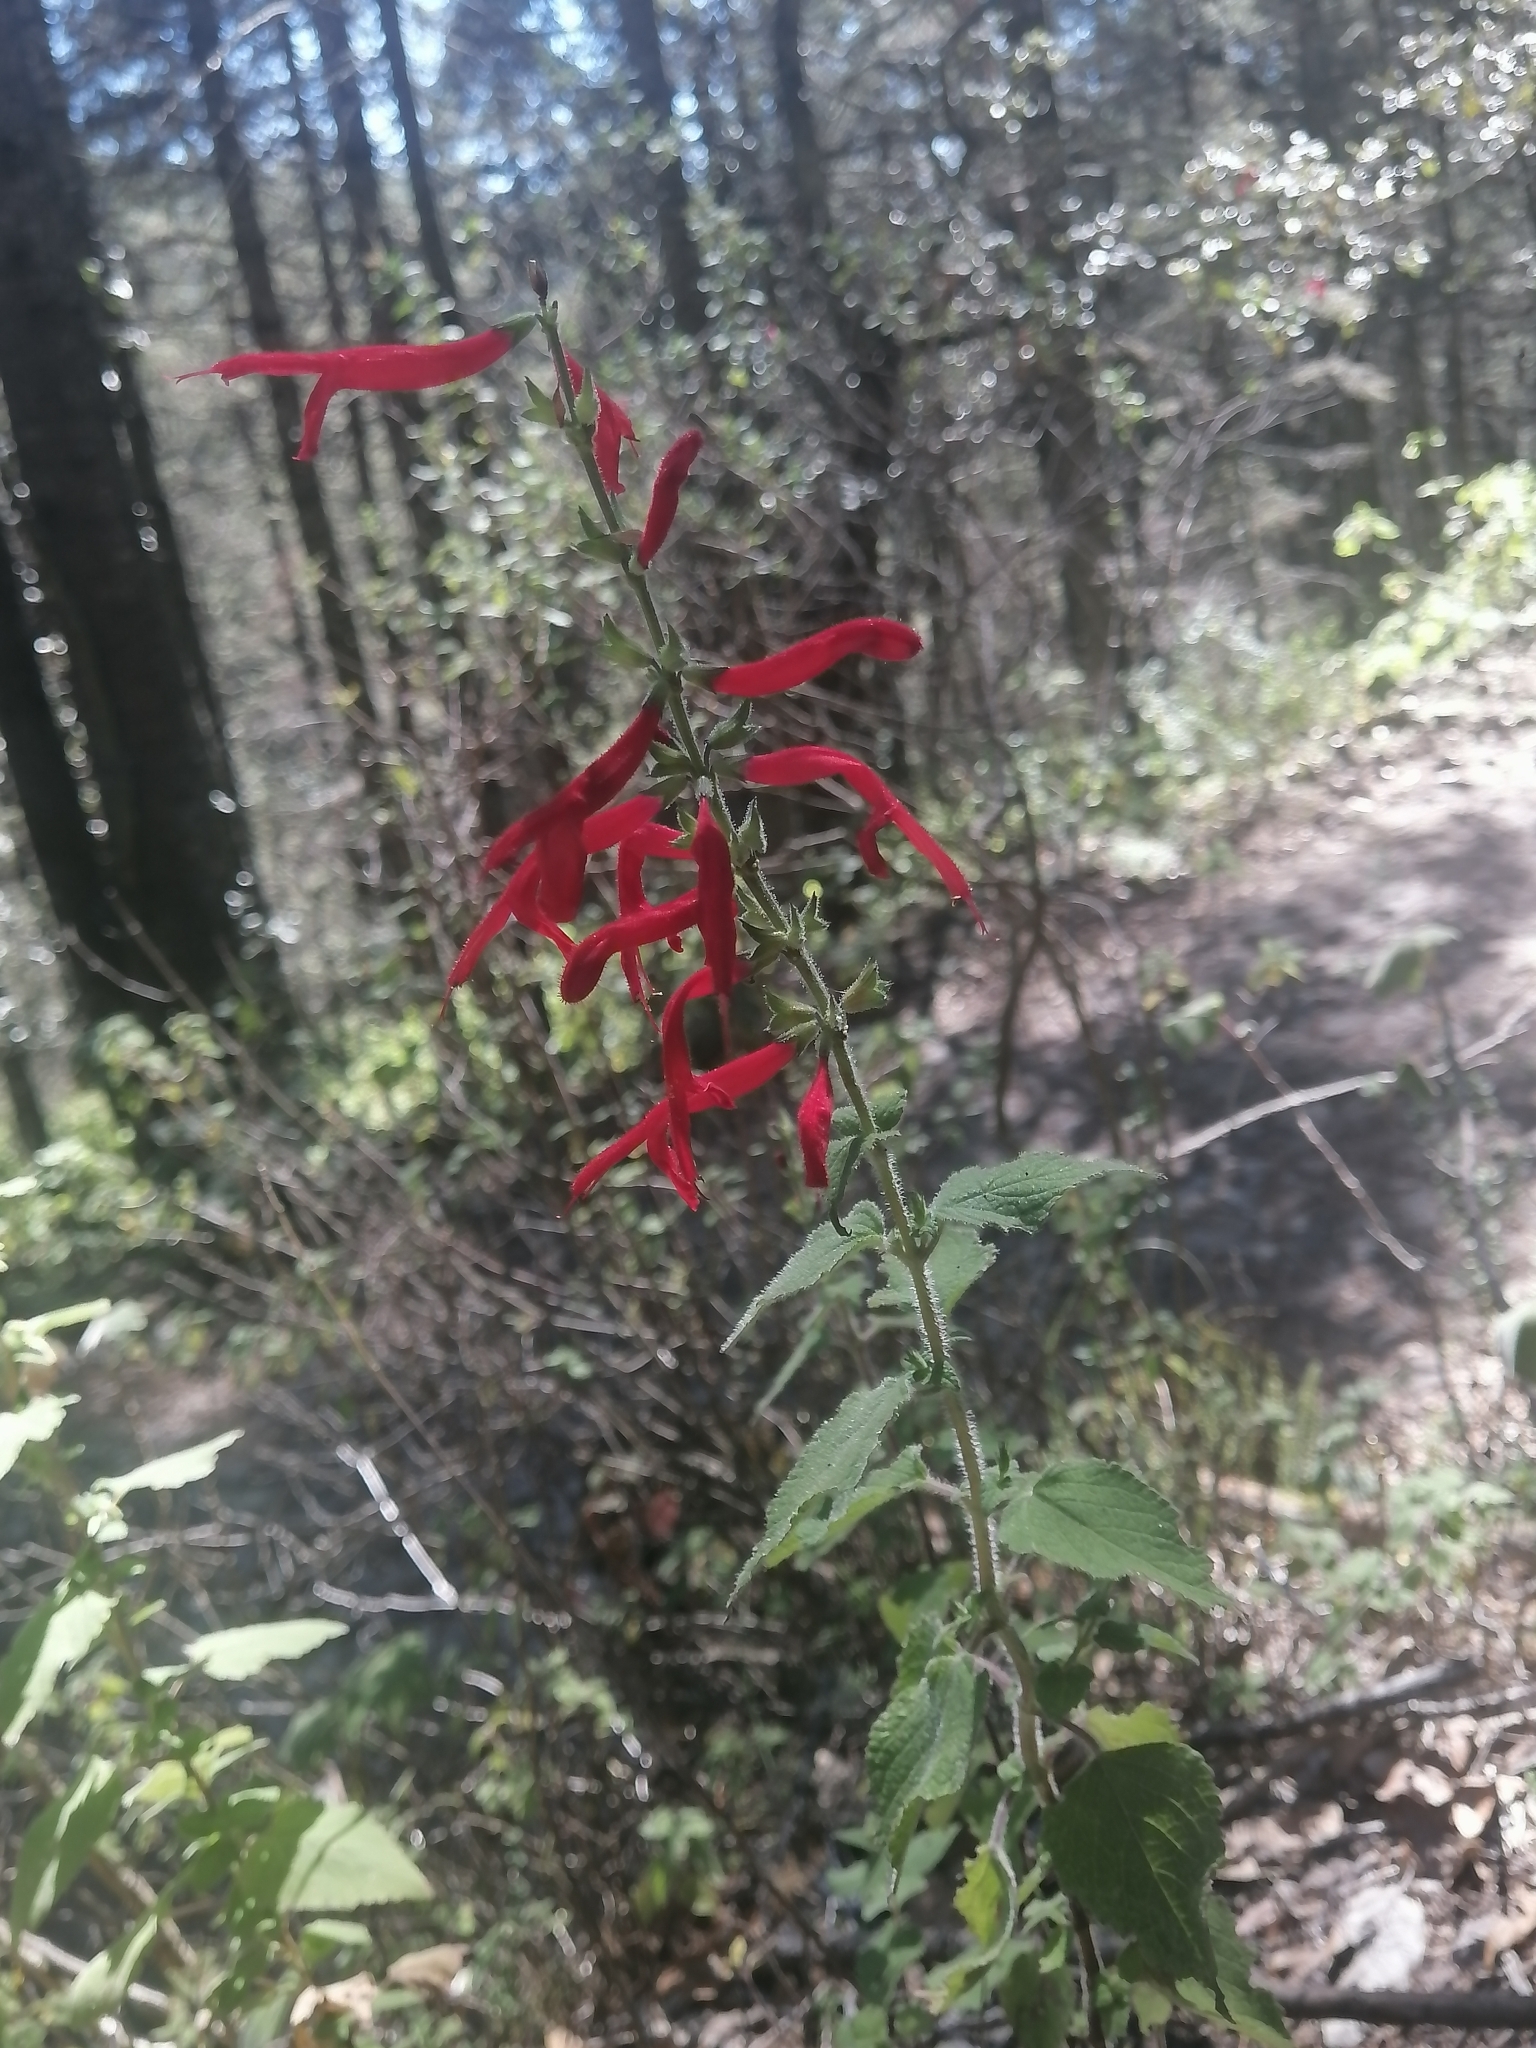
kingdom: Plantae
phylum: Tracheophyta
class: Magnoliopsida
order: Lamiales
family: Lamiaceae
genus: Salvia
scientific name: Salvia elegans
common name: Pineapple sage
